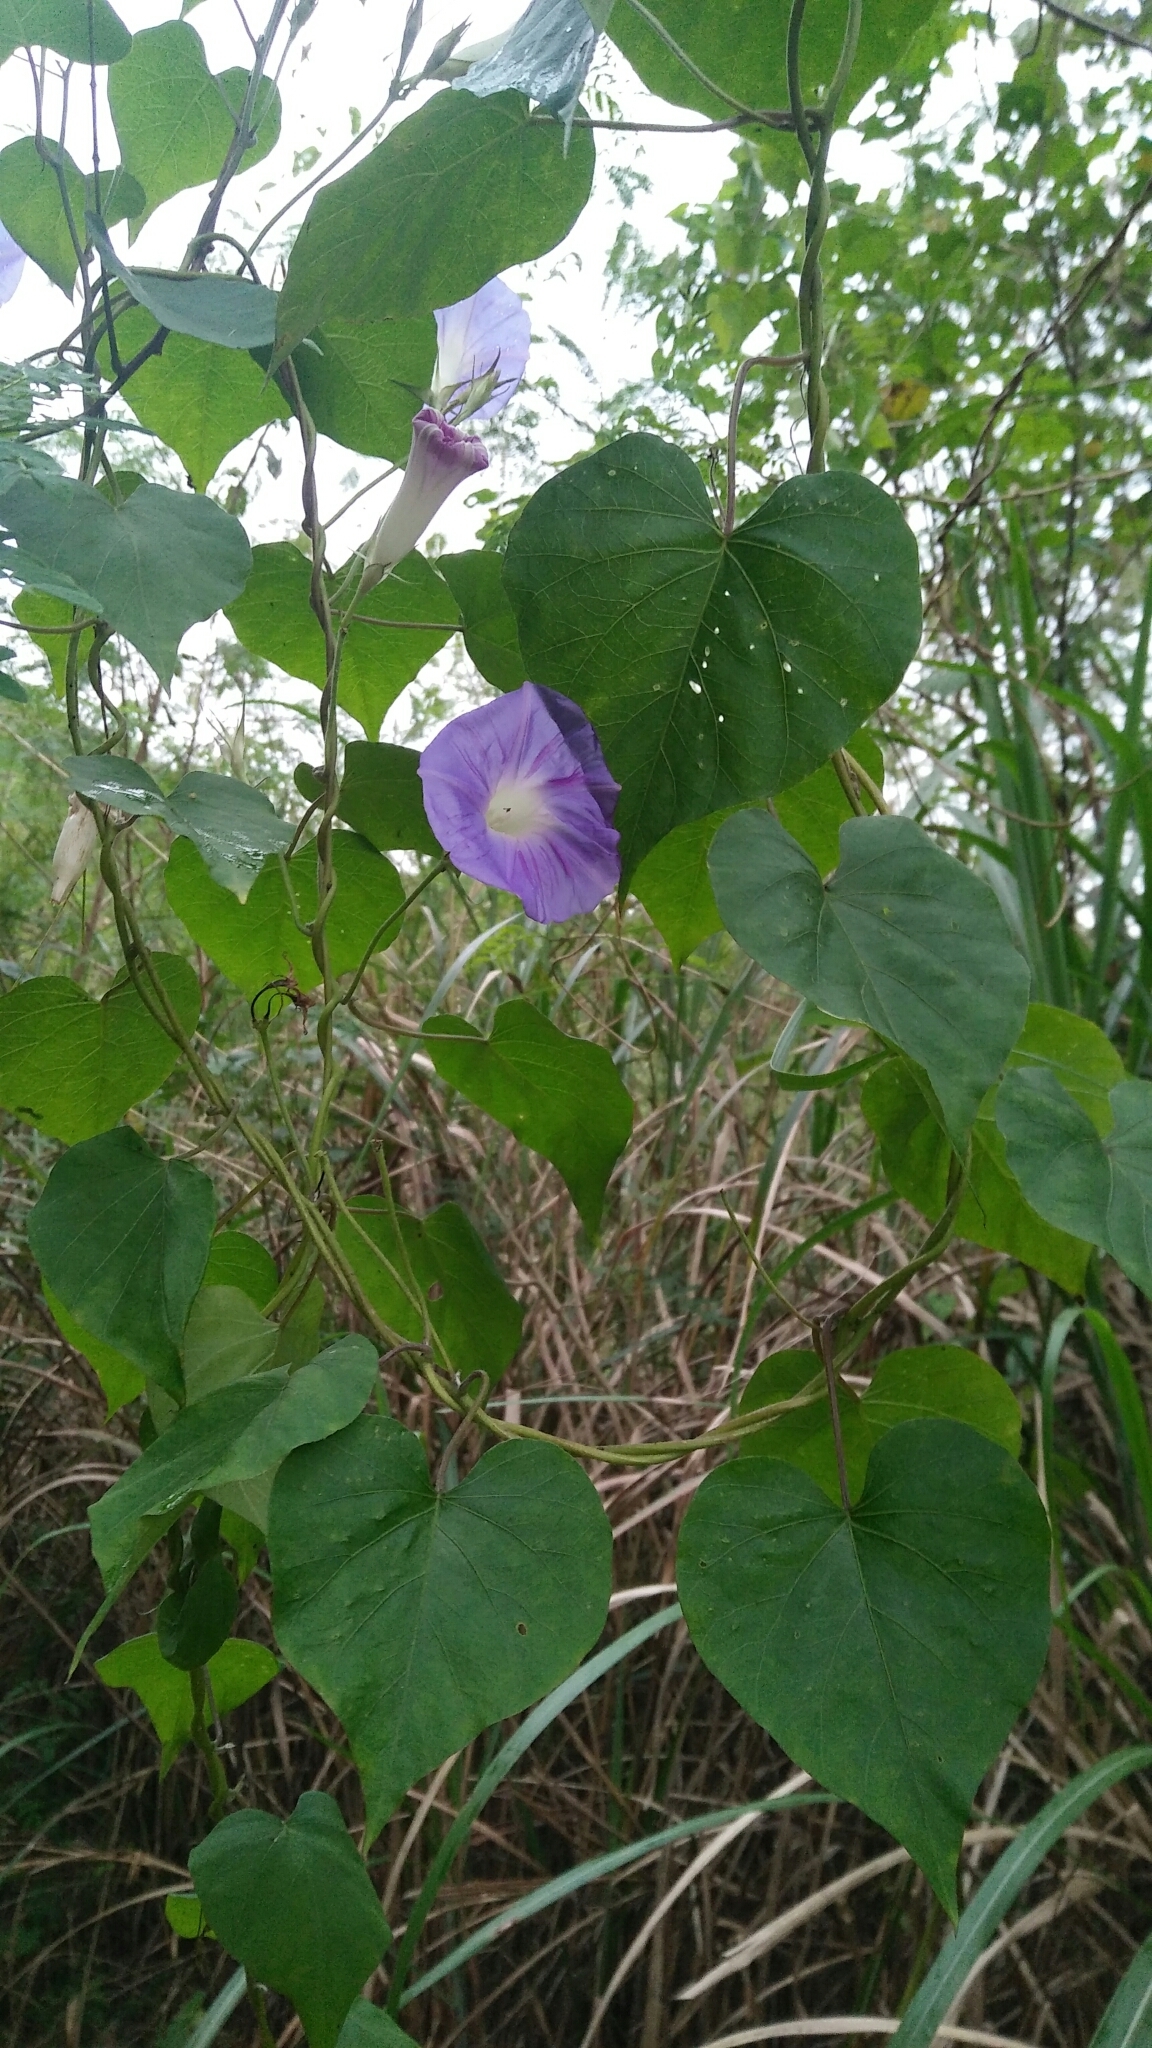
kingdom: Plantae
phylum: Tracheophyta
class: Magnoliopsida
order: Solanales
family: Convolvulaceae
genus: Ipomoea
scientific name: Ipomoea indica
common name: Blue dawnflower
